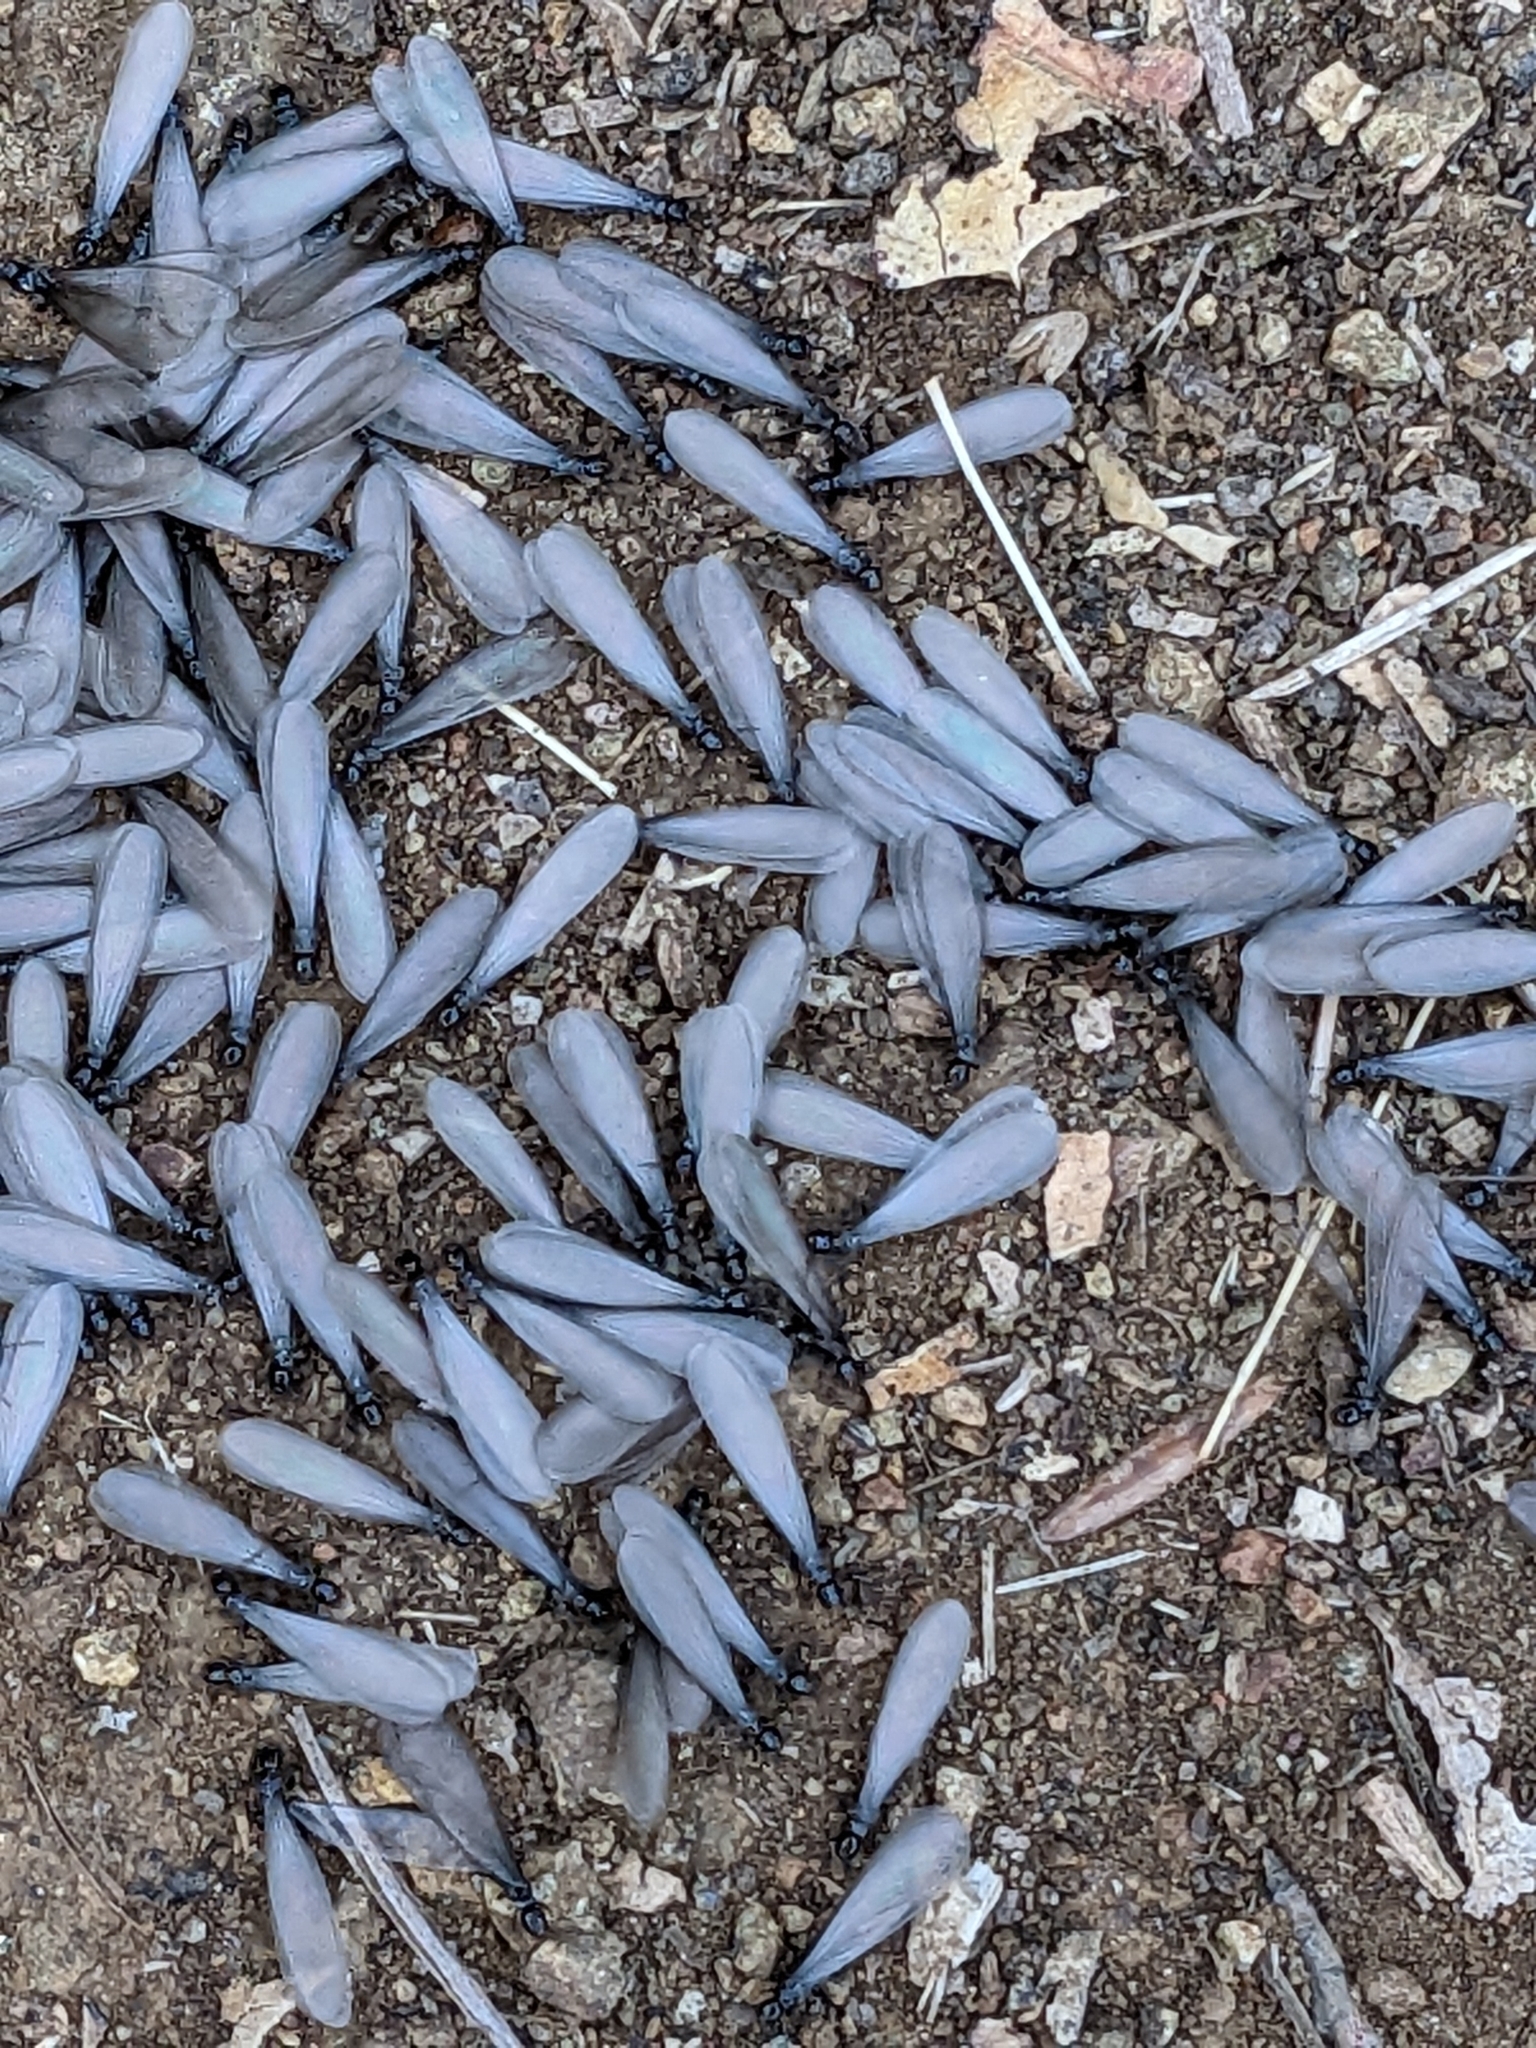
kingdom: Animalia
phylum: Arthropoda
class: Insecta
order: Blattodea
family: Rhinotermitidae
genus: Reticulitermes
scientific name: Reticulitermes hesperus
